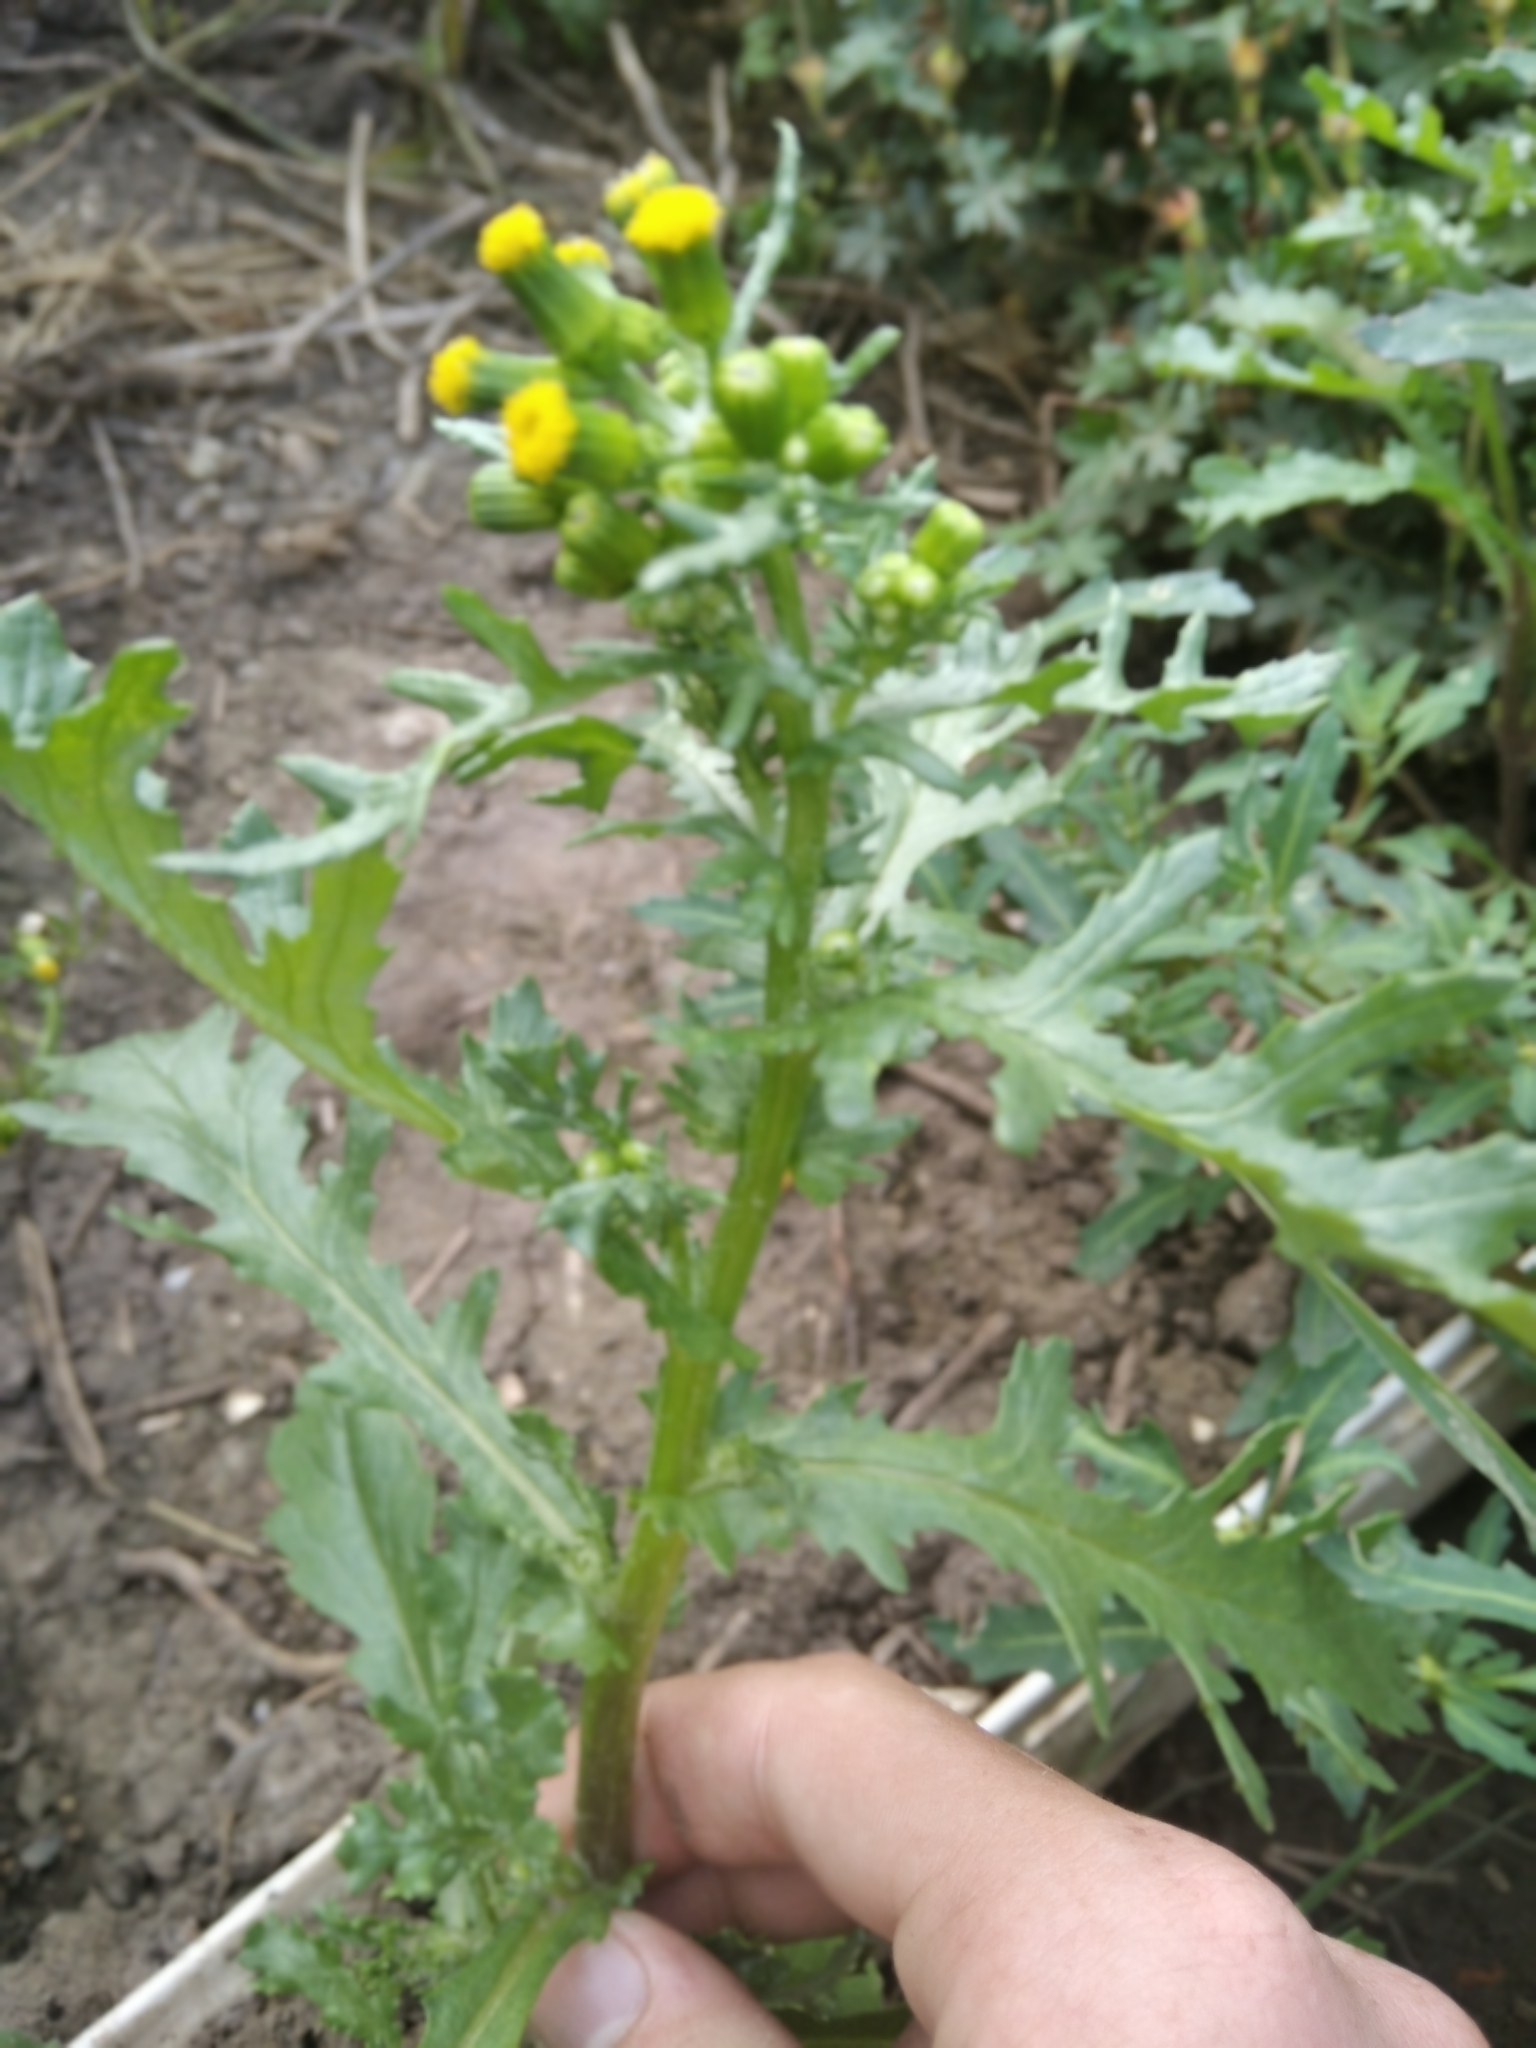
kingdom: Plantae
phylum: Tracheophyta
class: Magnoliopsida
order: Asterales
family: Asteraceae
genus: Senecio
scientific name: Senecio vulgaris
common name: Old-man-in-the-spring
